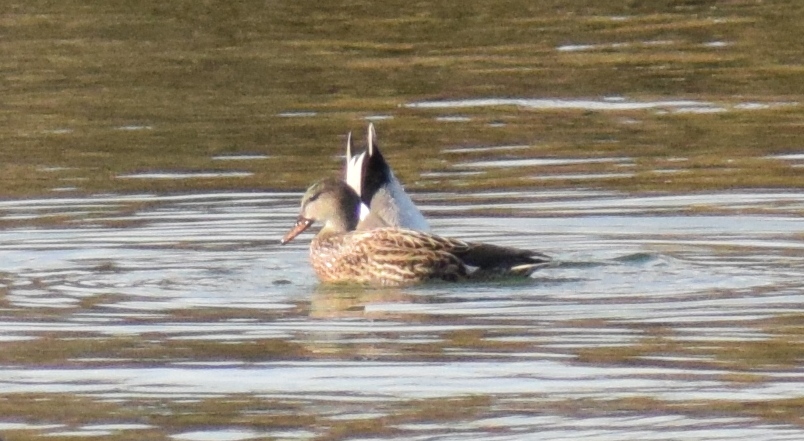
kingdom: Animalia
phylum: Chordata
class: Aves
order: Anseriformes
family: Anatidae
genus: Mareca
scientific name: Mareca strepera
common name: Gadwall
